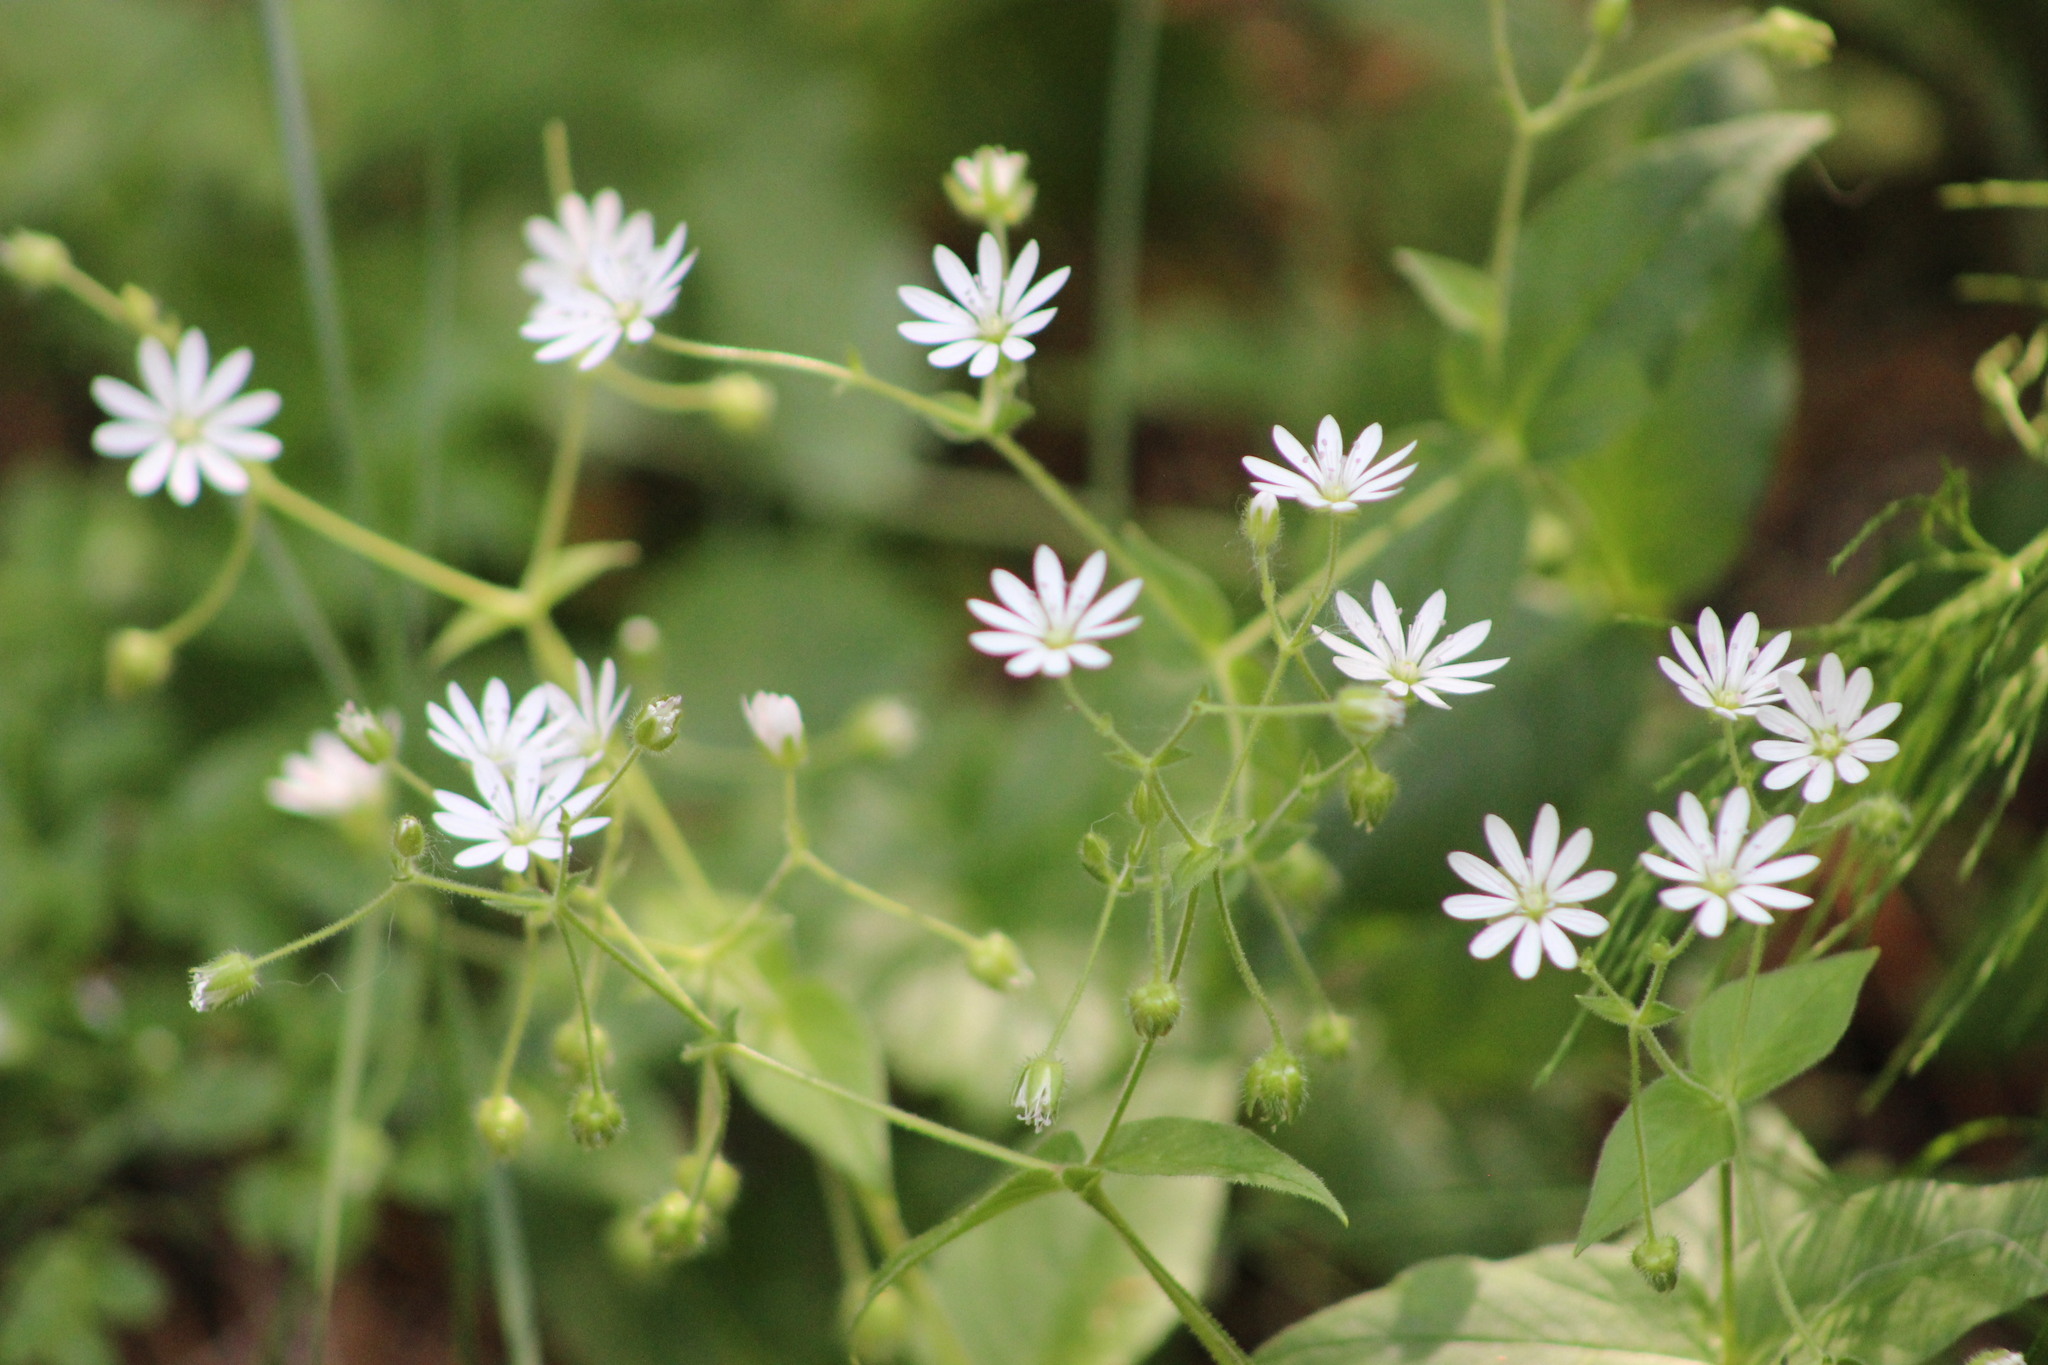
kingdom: Plantae
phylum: Tracheophyta
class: Magnoliopsida
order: Caryophyllales
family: Caryophyllaceae
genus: Stellaria
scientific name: Stellaria bungeana
